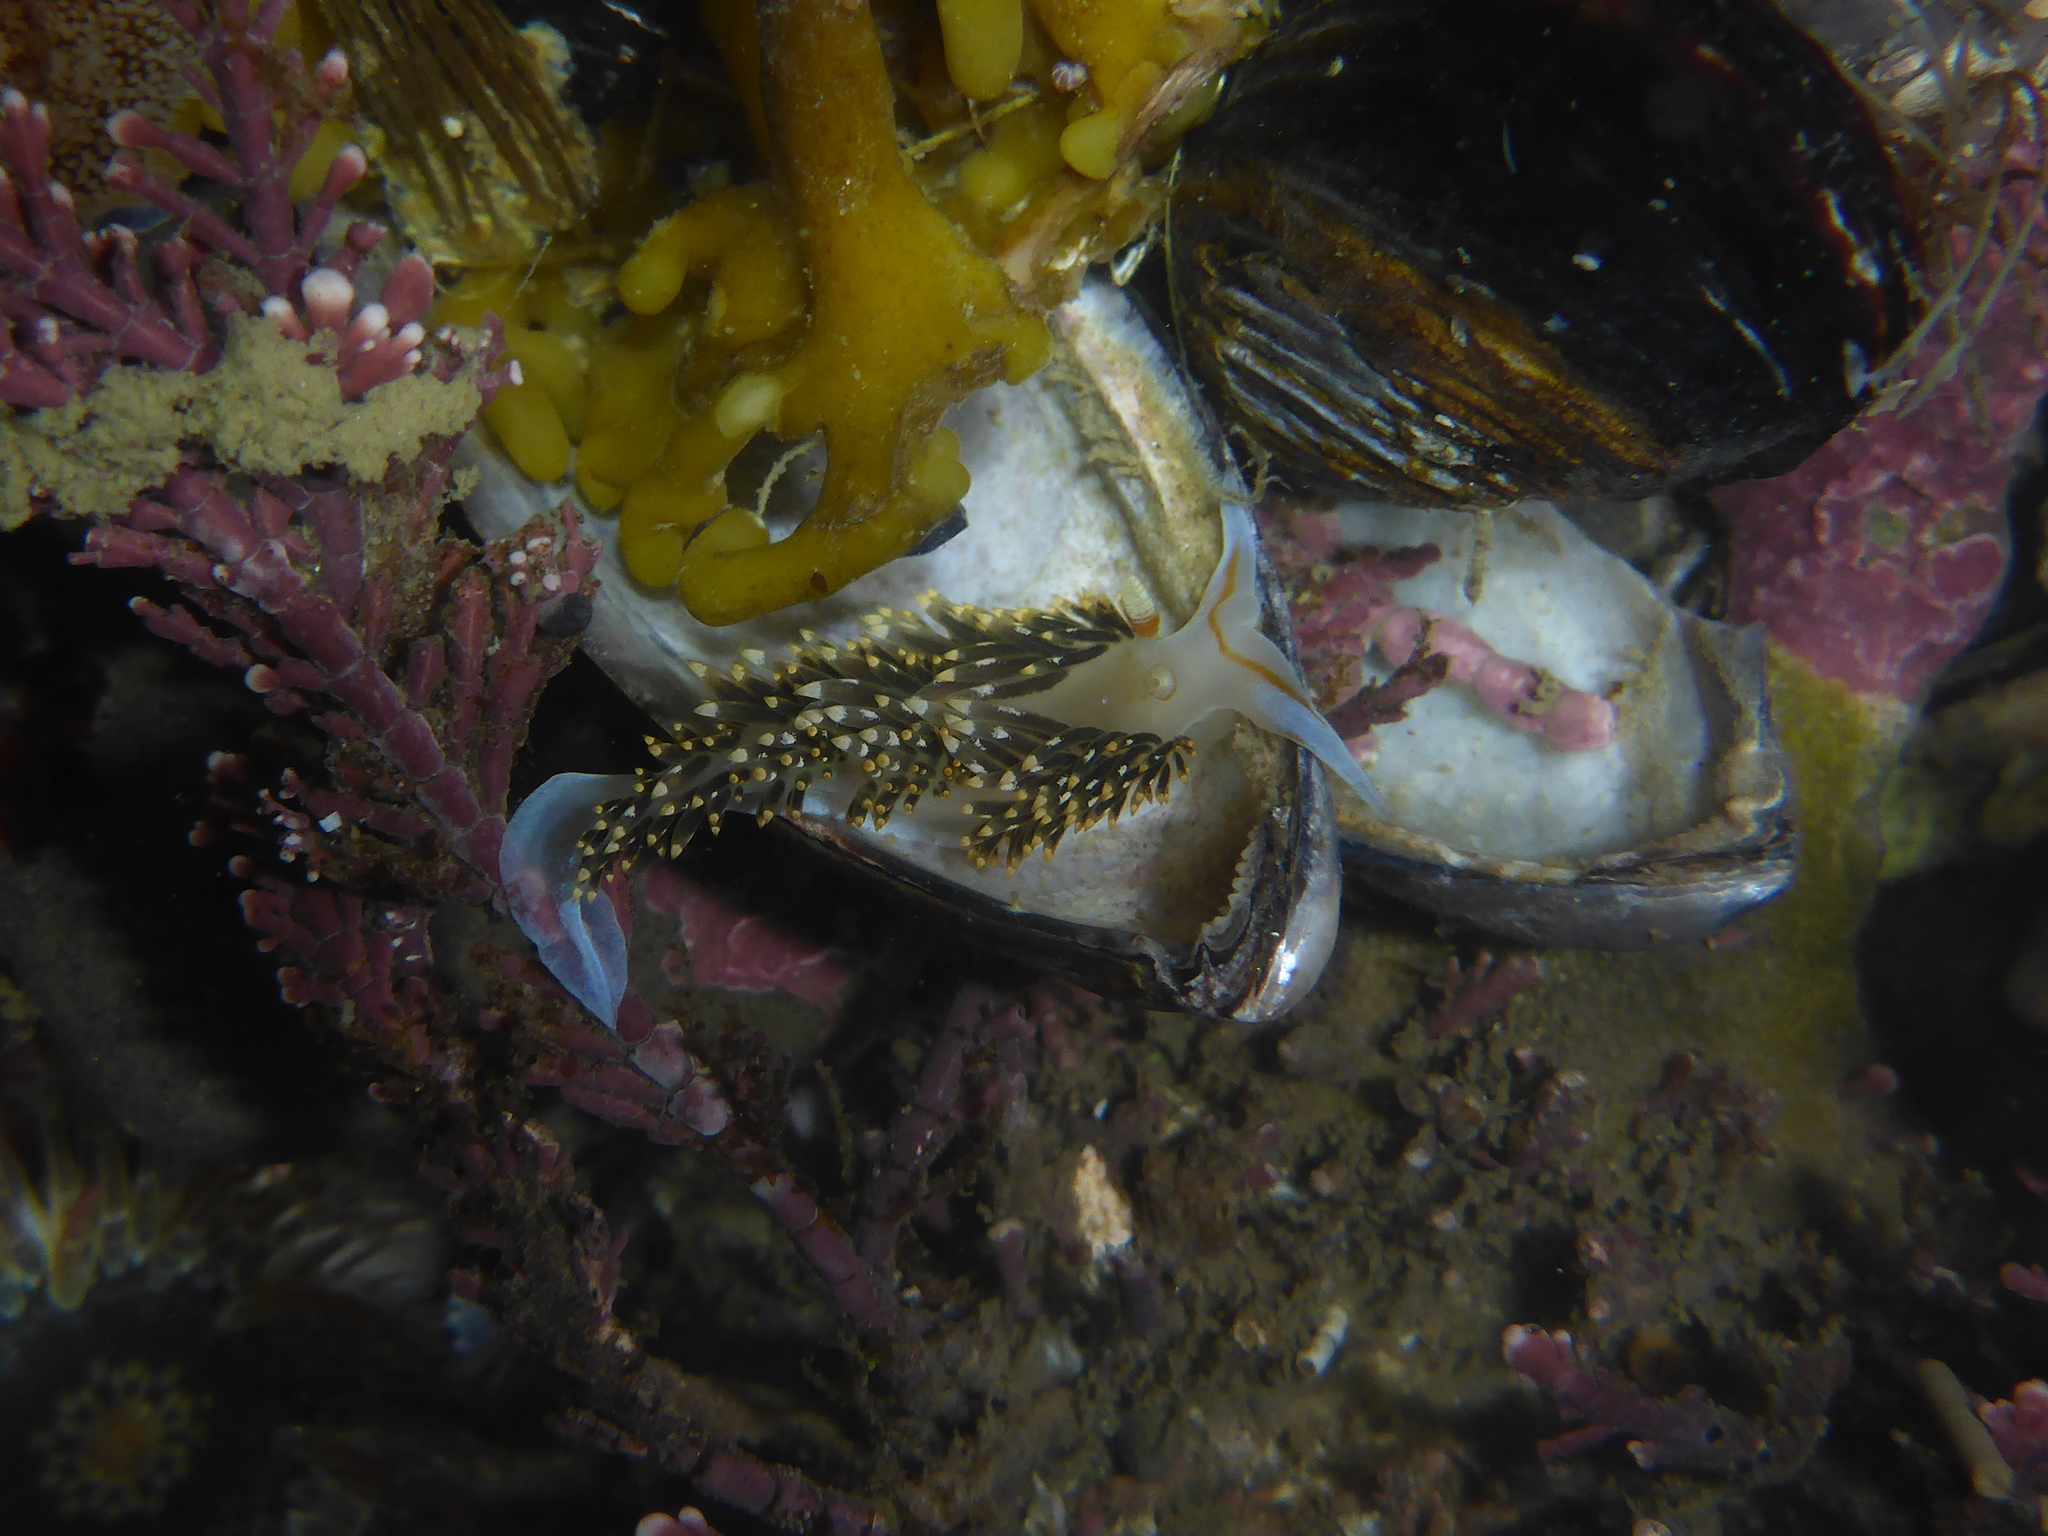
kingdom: Animalia
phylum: Mollusca
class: Gastropoda
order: Nudibranchia
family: Facelinidae
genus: Phidiana
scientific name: Phidiana hiltoni
